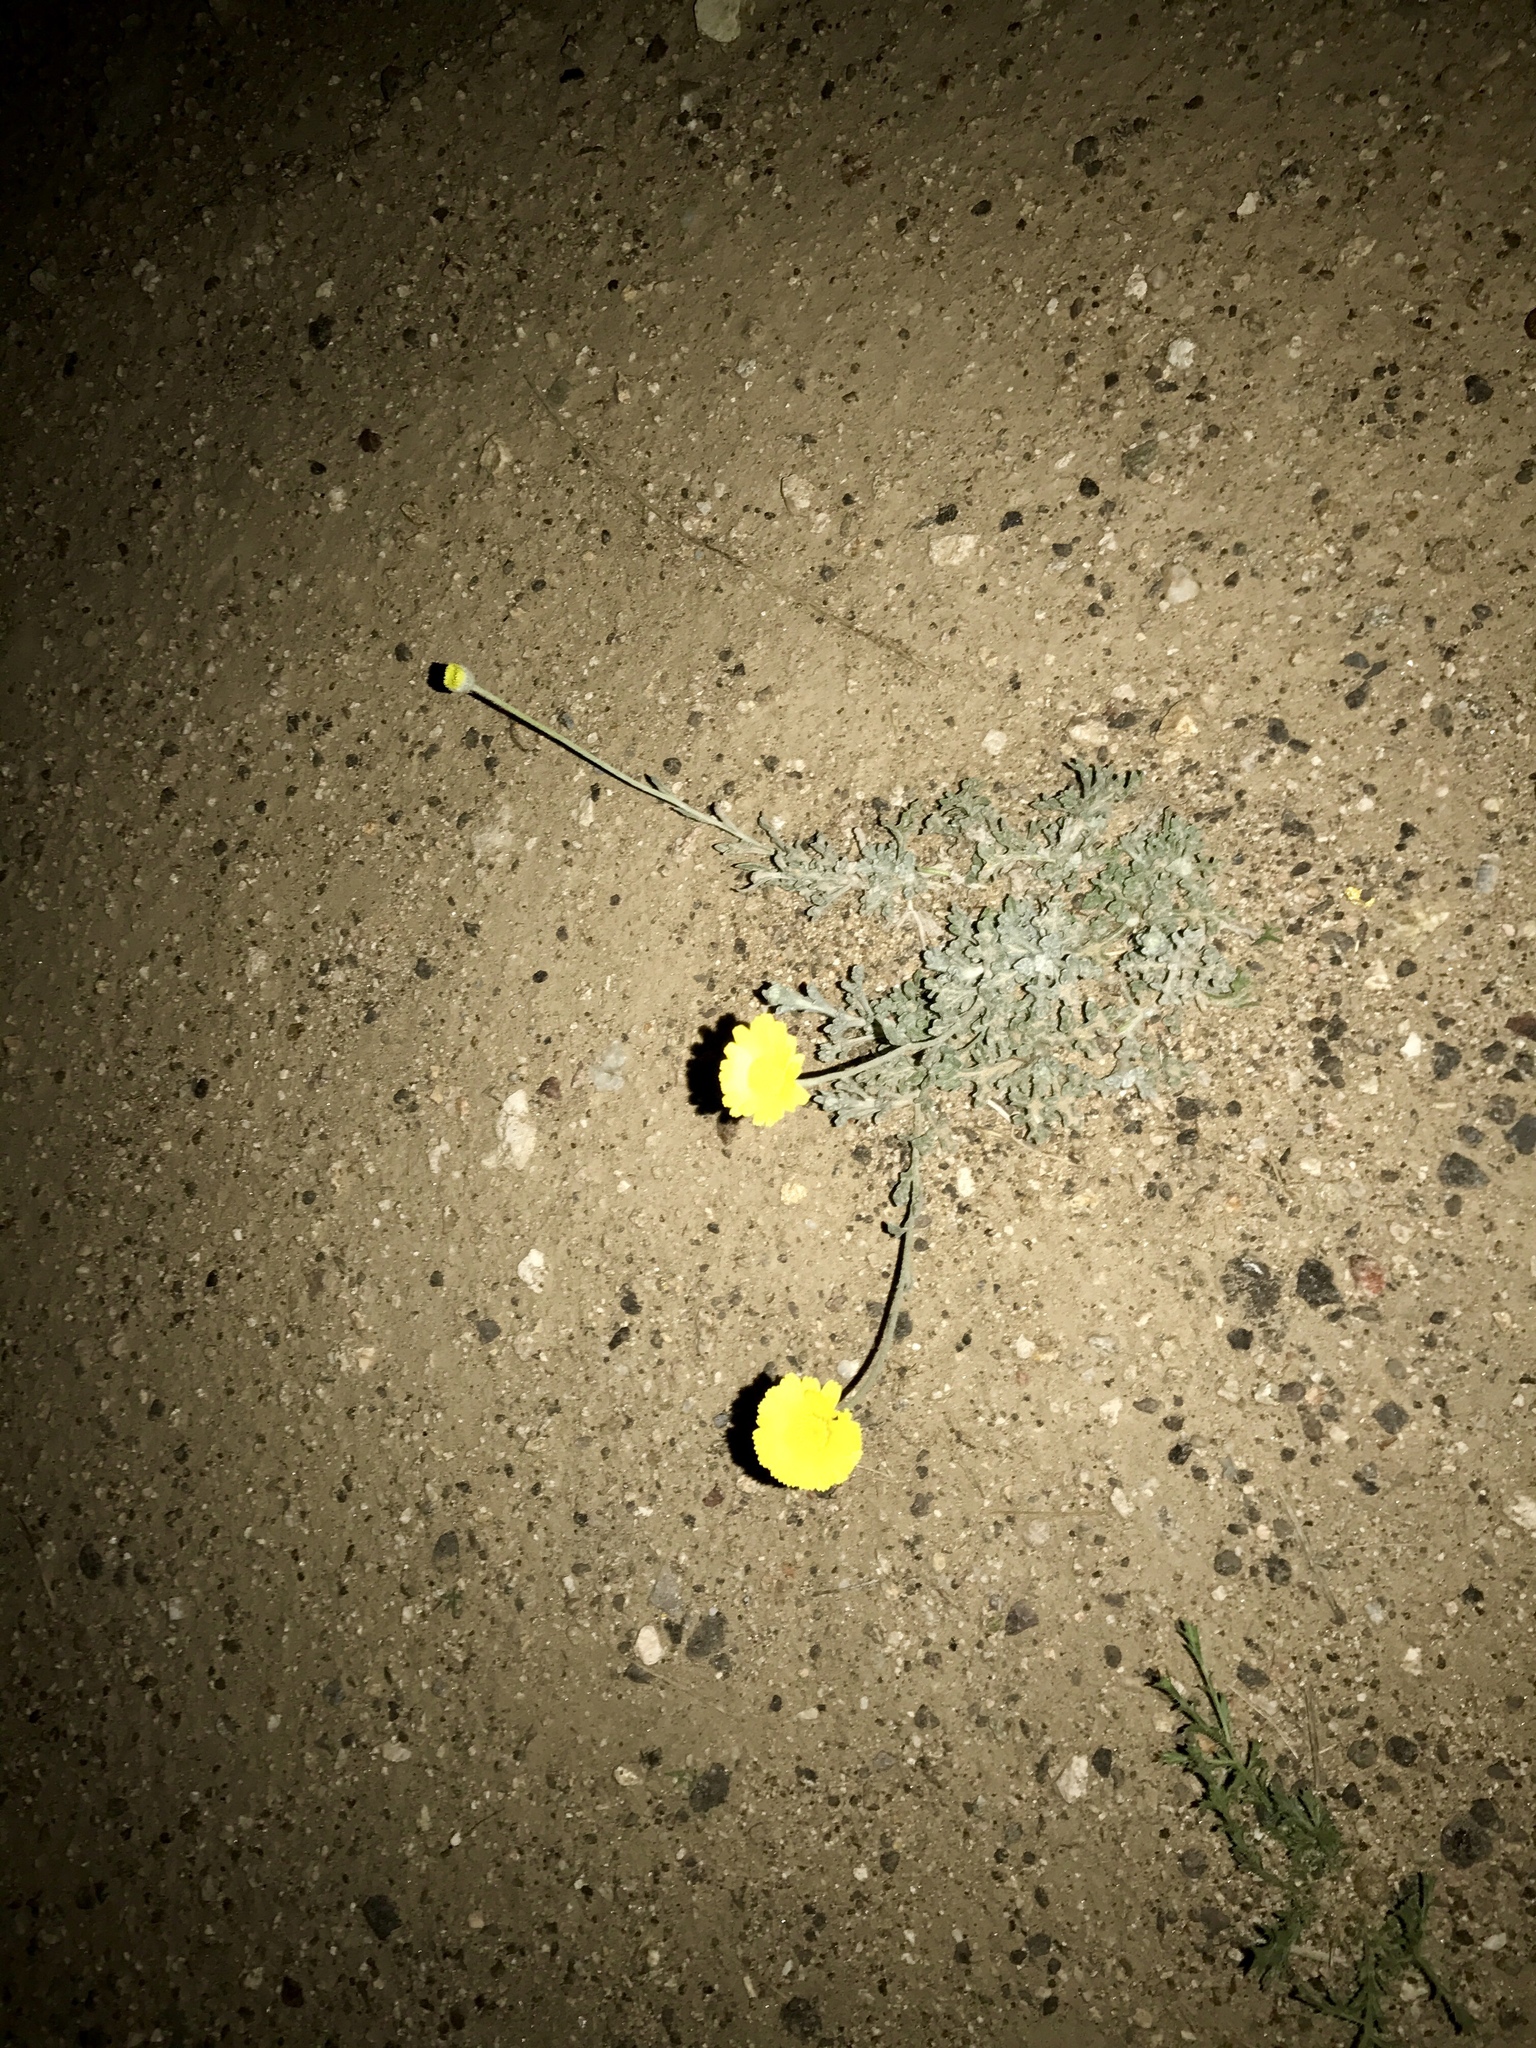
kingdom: Plantae
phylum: Tracheophyta
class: Magnoliopsida
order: Asterales
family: Asteraceae
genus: Baileya
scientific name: Baileya multiradiata
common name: Desert-marigold
